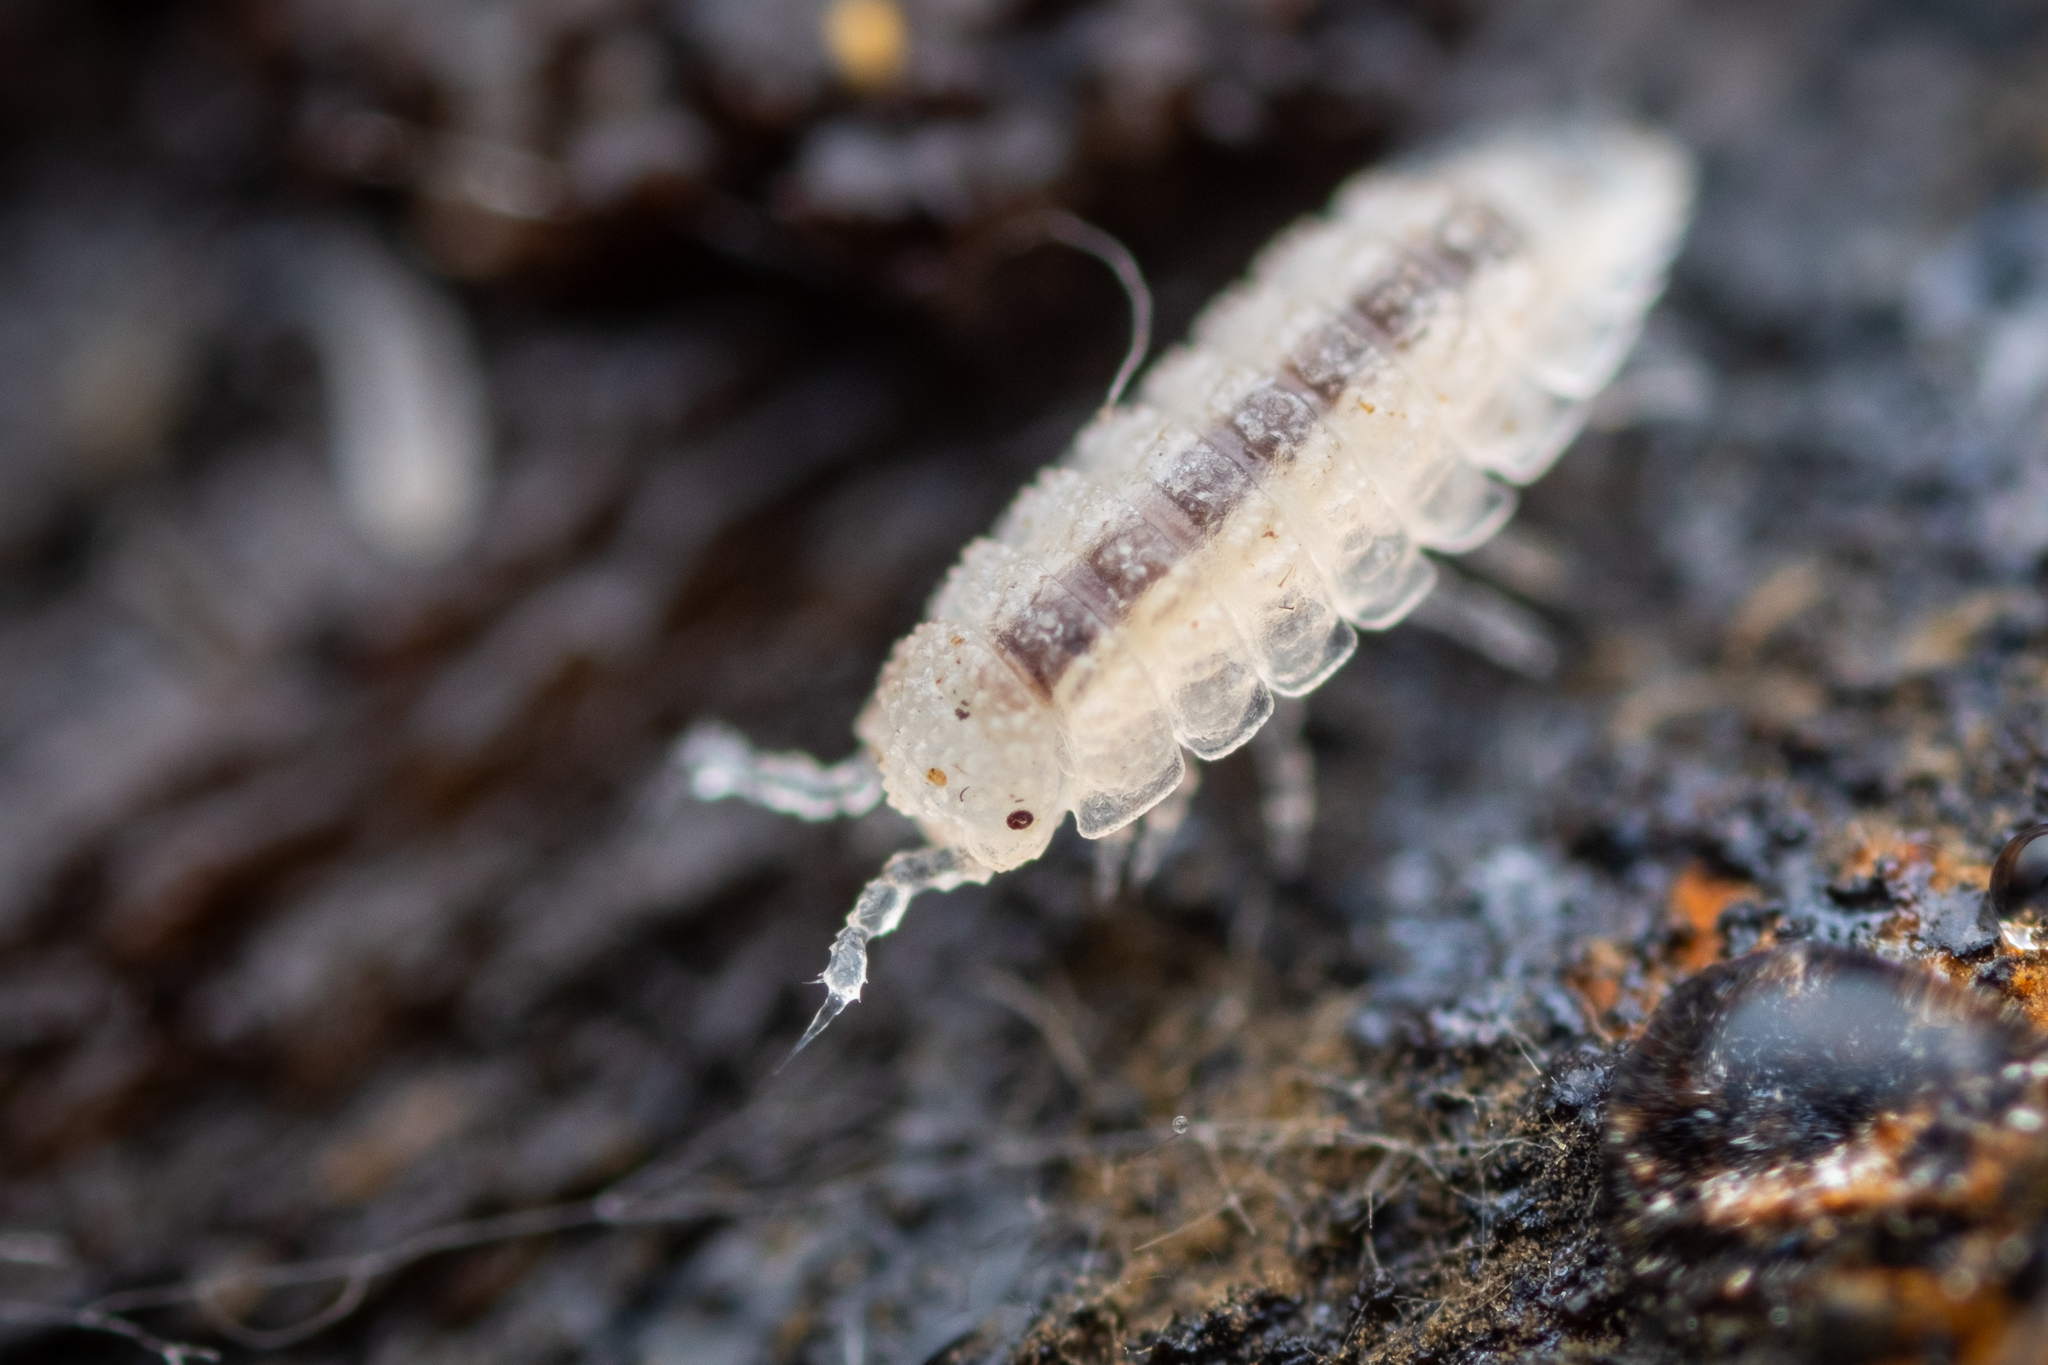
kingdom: Animalia
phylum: Arthropoda
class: Malacostraca
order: Isopoda
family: Trichoniscidae
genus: Haplophthalmus
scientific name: Haplophthalmus danicus
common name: Pillbug
